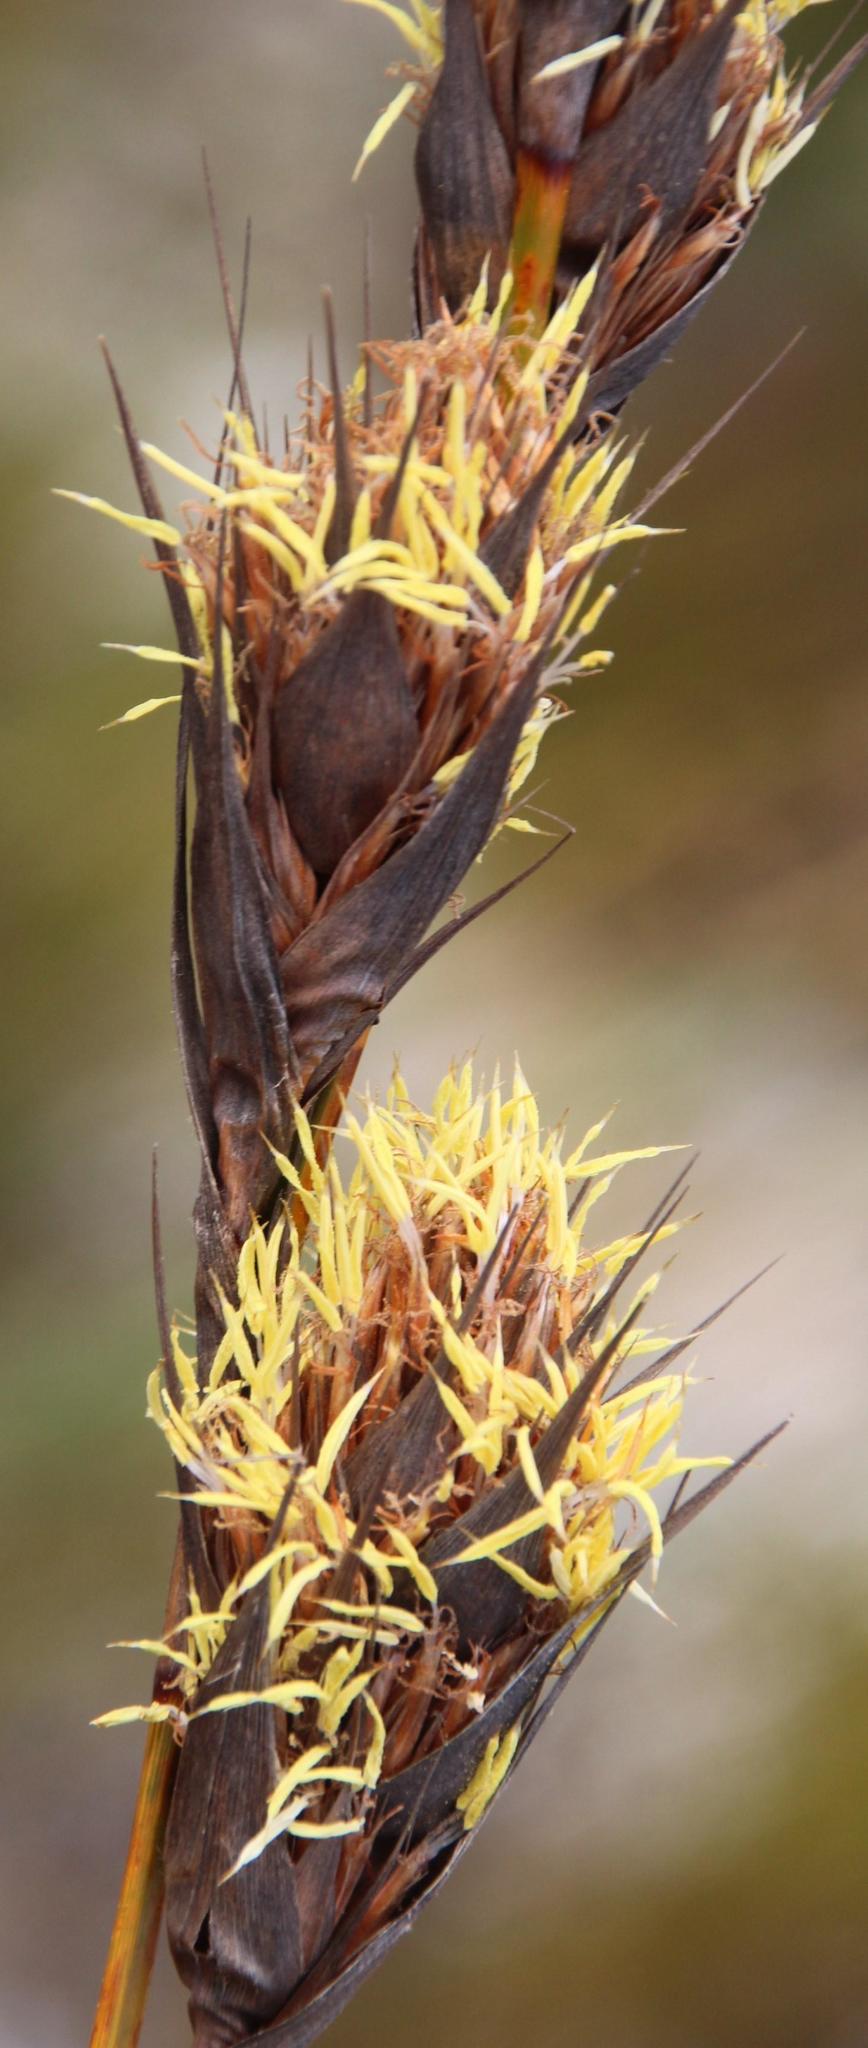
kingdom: Plantae
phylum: Tracheophyta
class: Liliopsida
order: Poales
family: Cyperaceae
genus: Tetraria
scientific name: Tetraria bromoides
